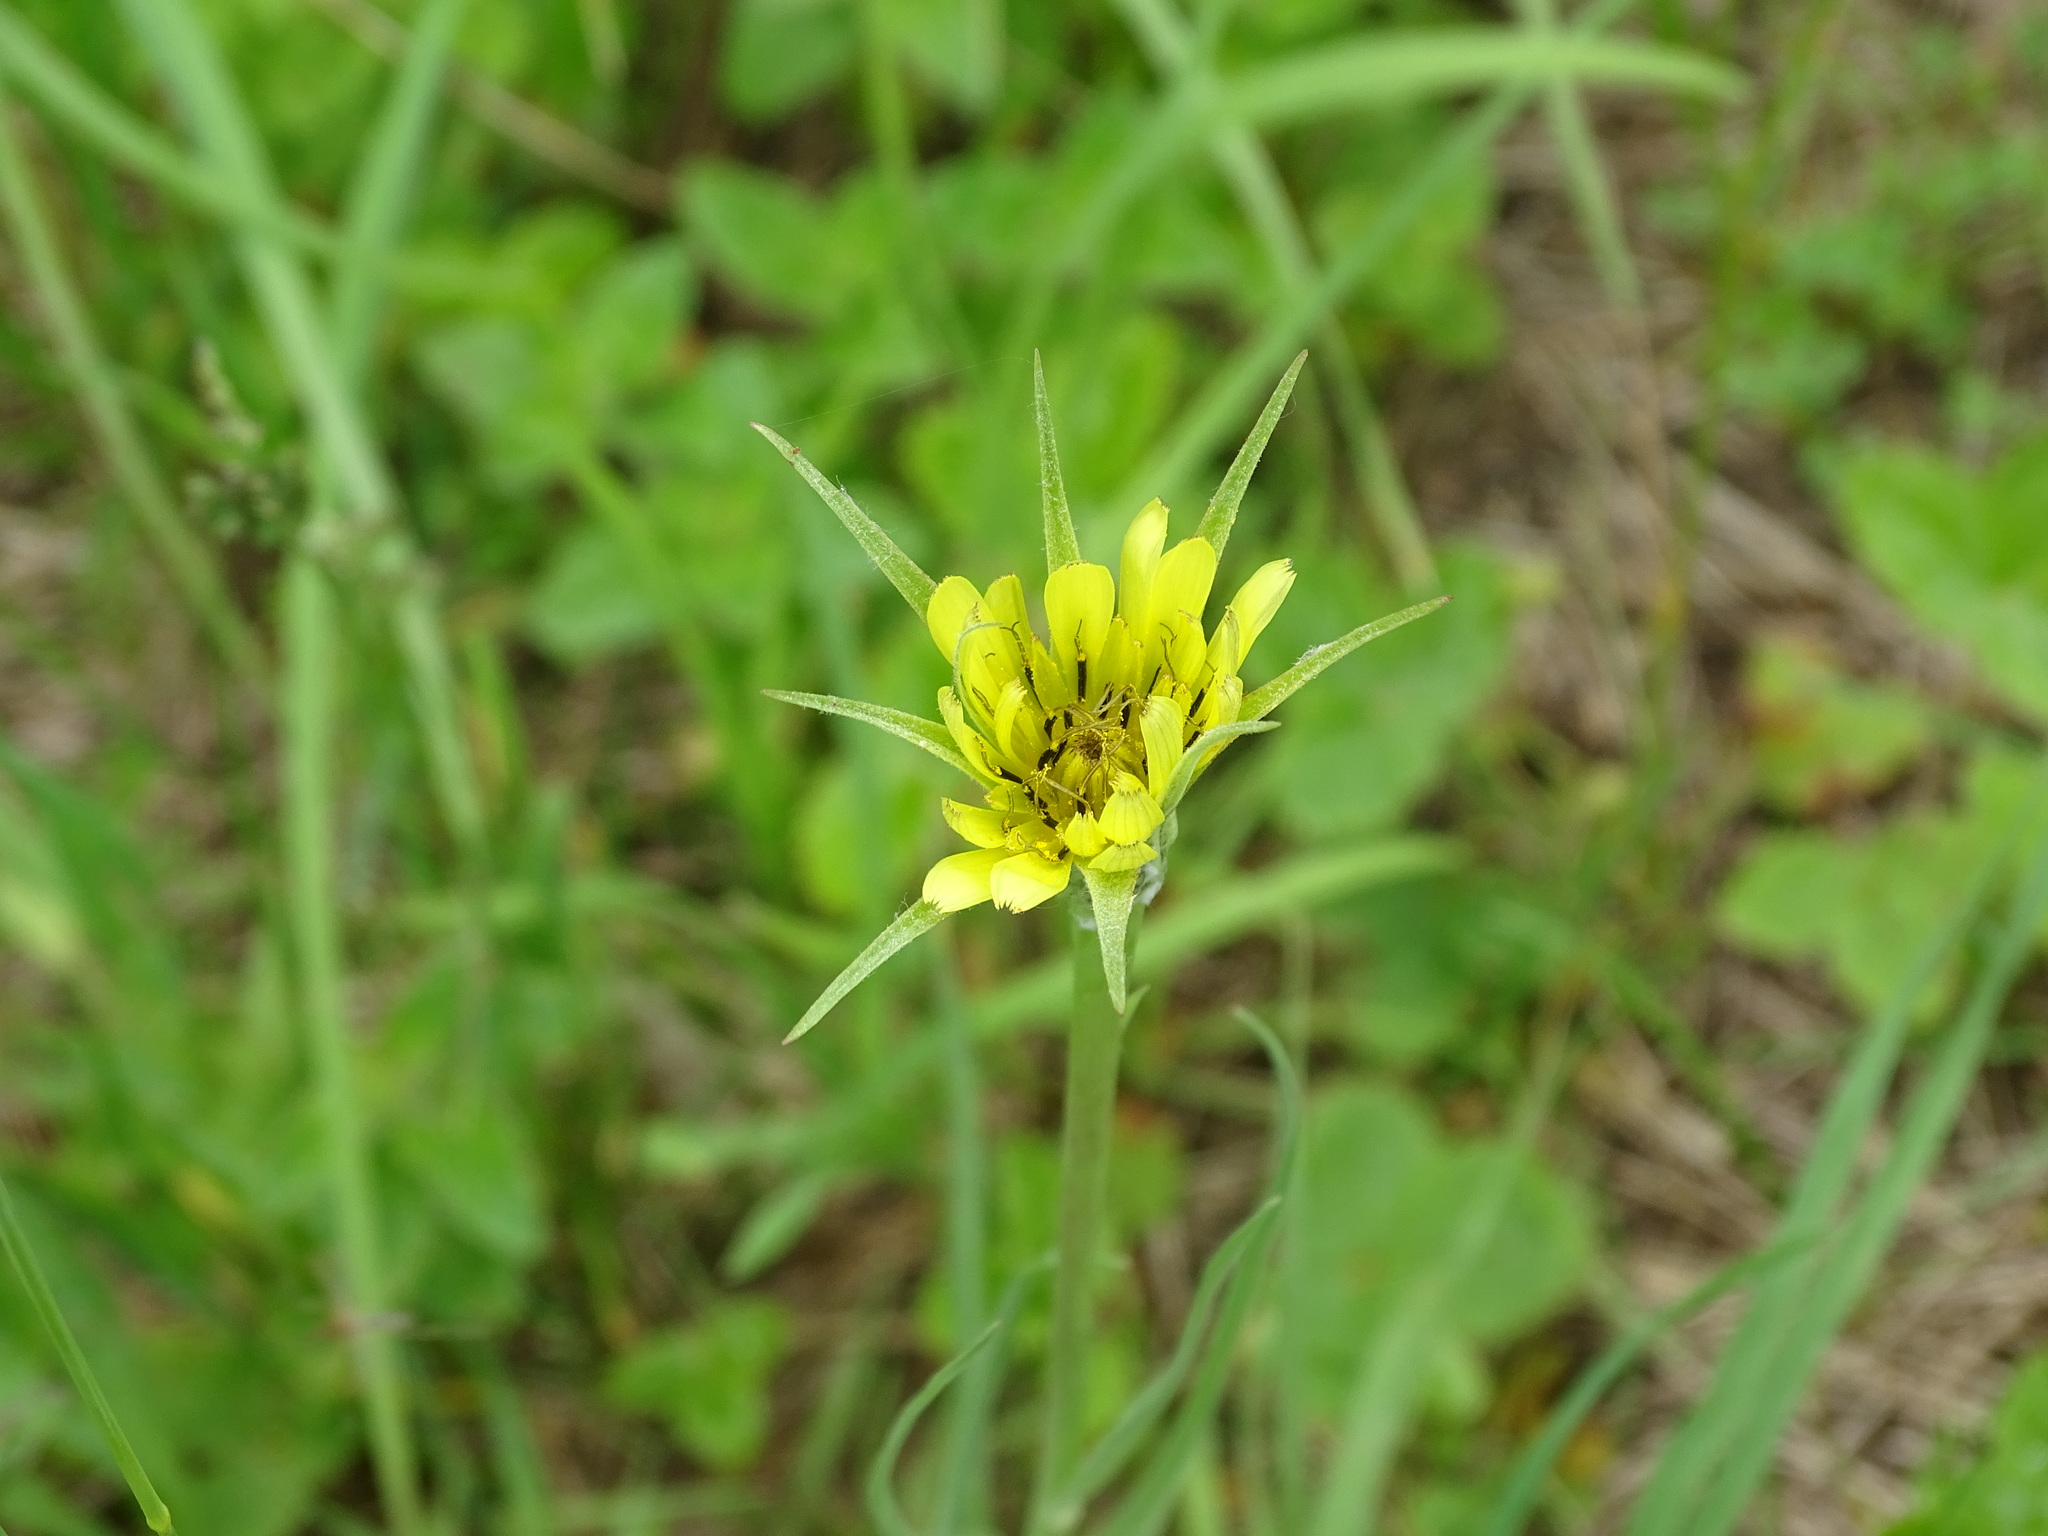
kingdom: Plantae
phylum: Tracheophyta
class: Magnoliopsida
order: Asterales
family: Asteraceae
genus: Tragopogon
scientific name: Tragopogon dubius
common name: Yellow salsify
